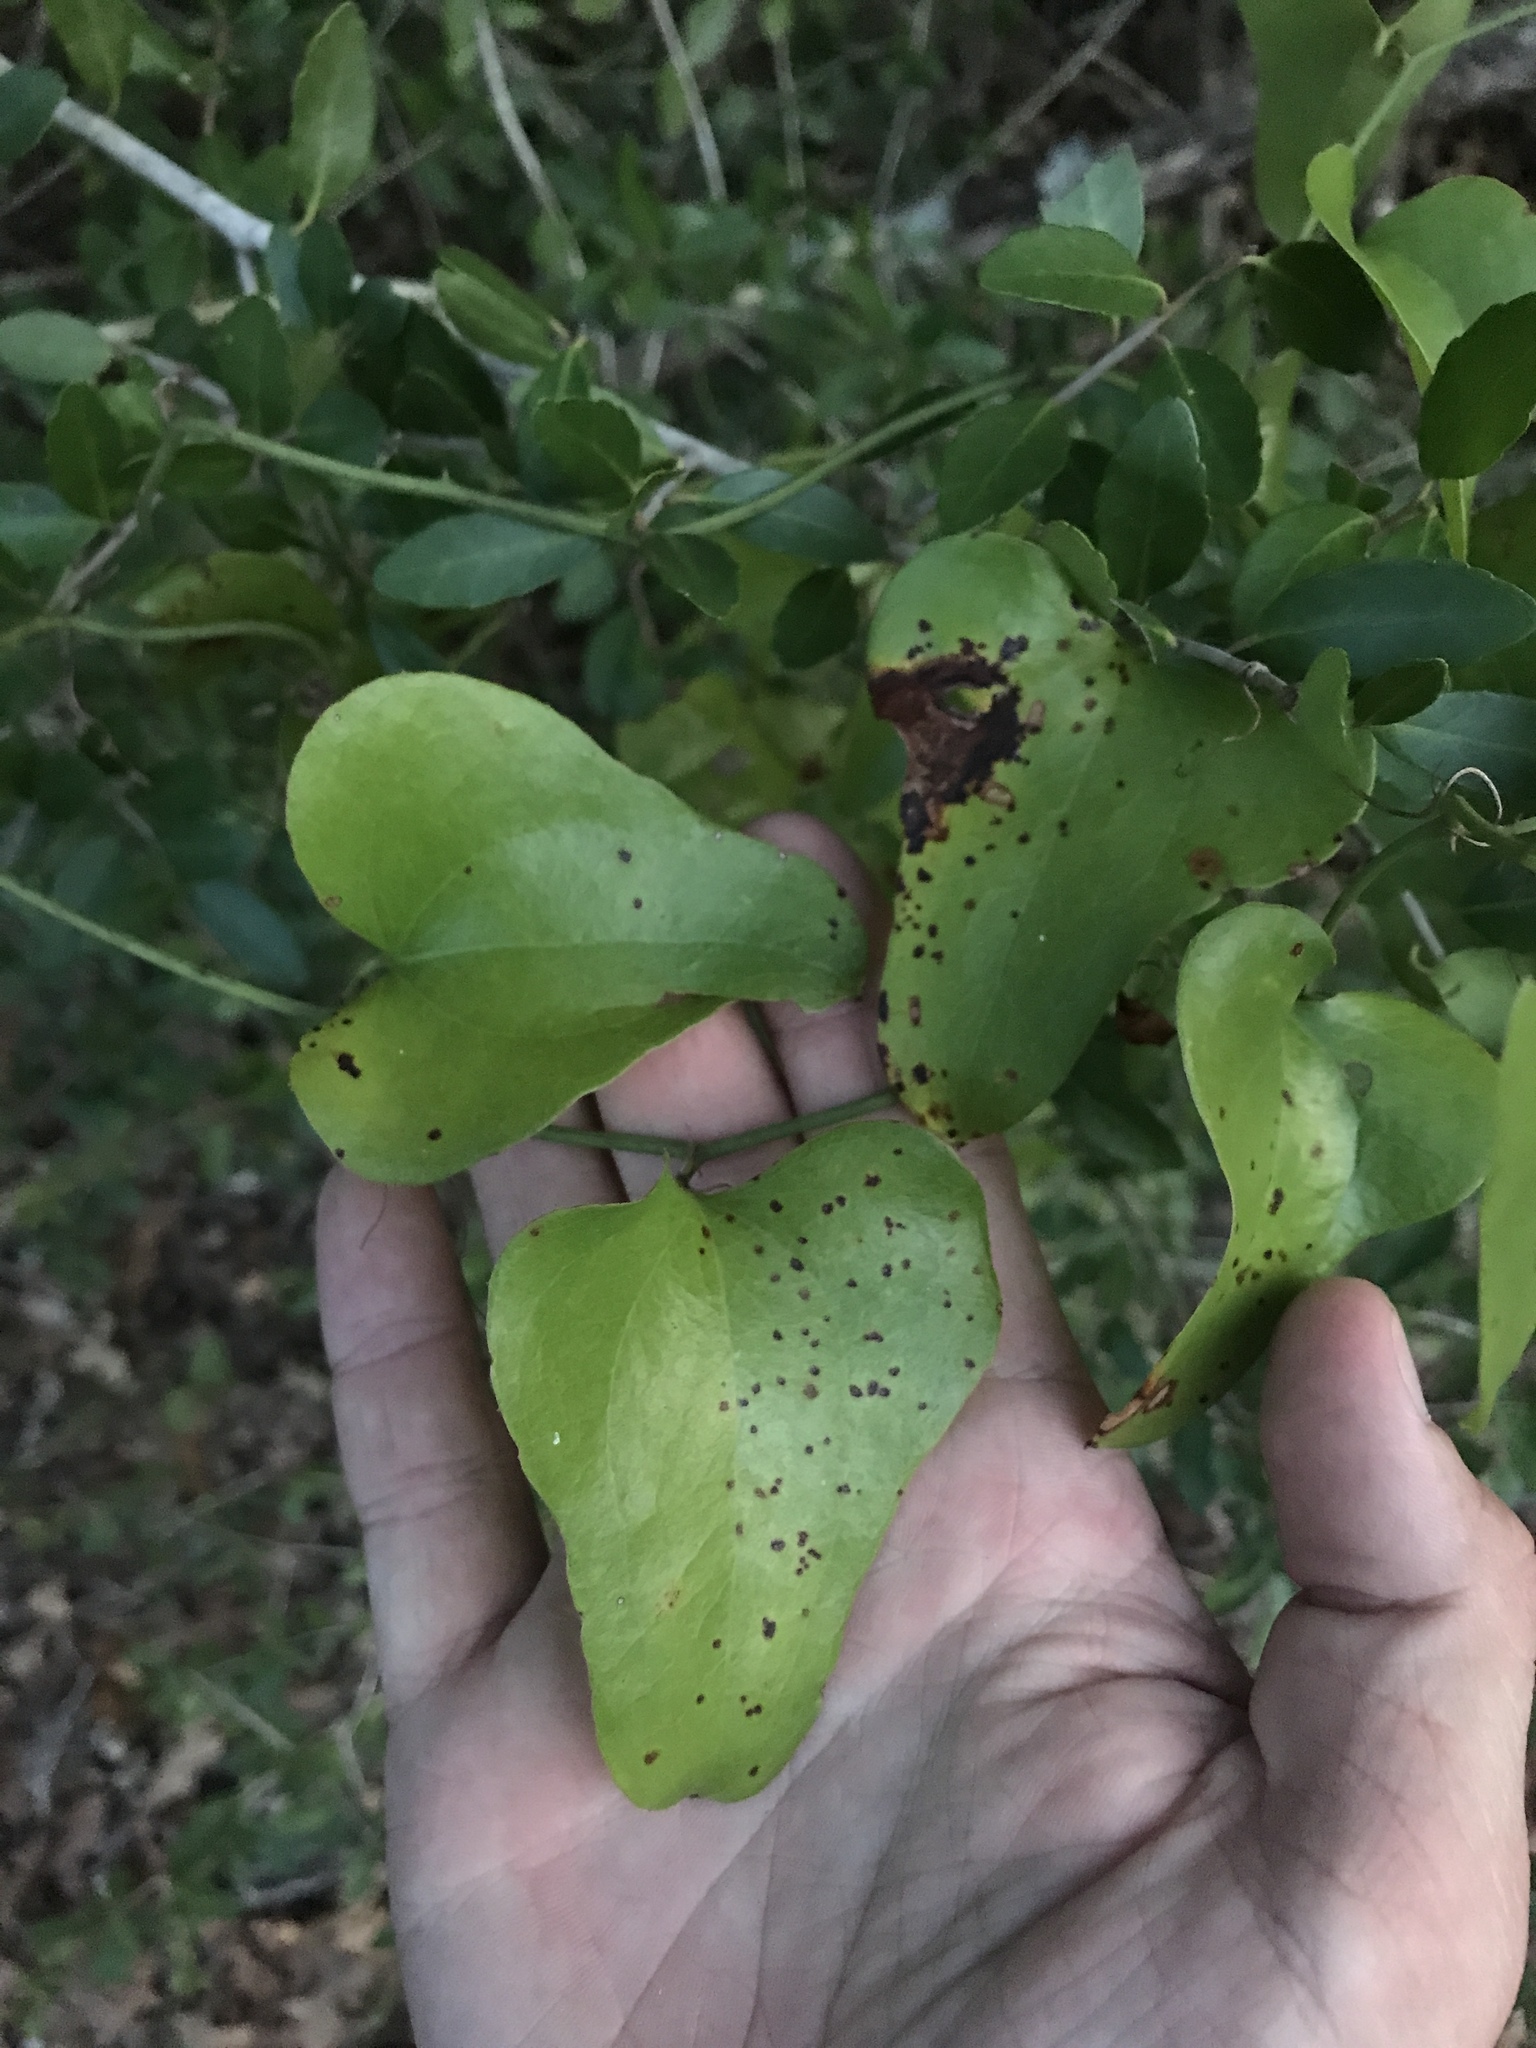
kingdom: Plantae
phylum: Tracheophyta
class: Liliopsida
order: Liliales
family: Smilacaceae
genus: Smilax
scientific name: Smilax bona-nox
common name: Catbrier
